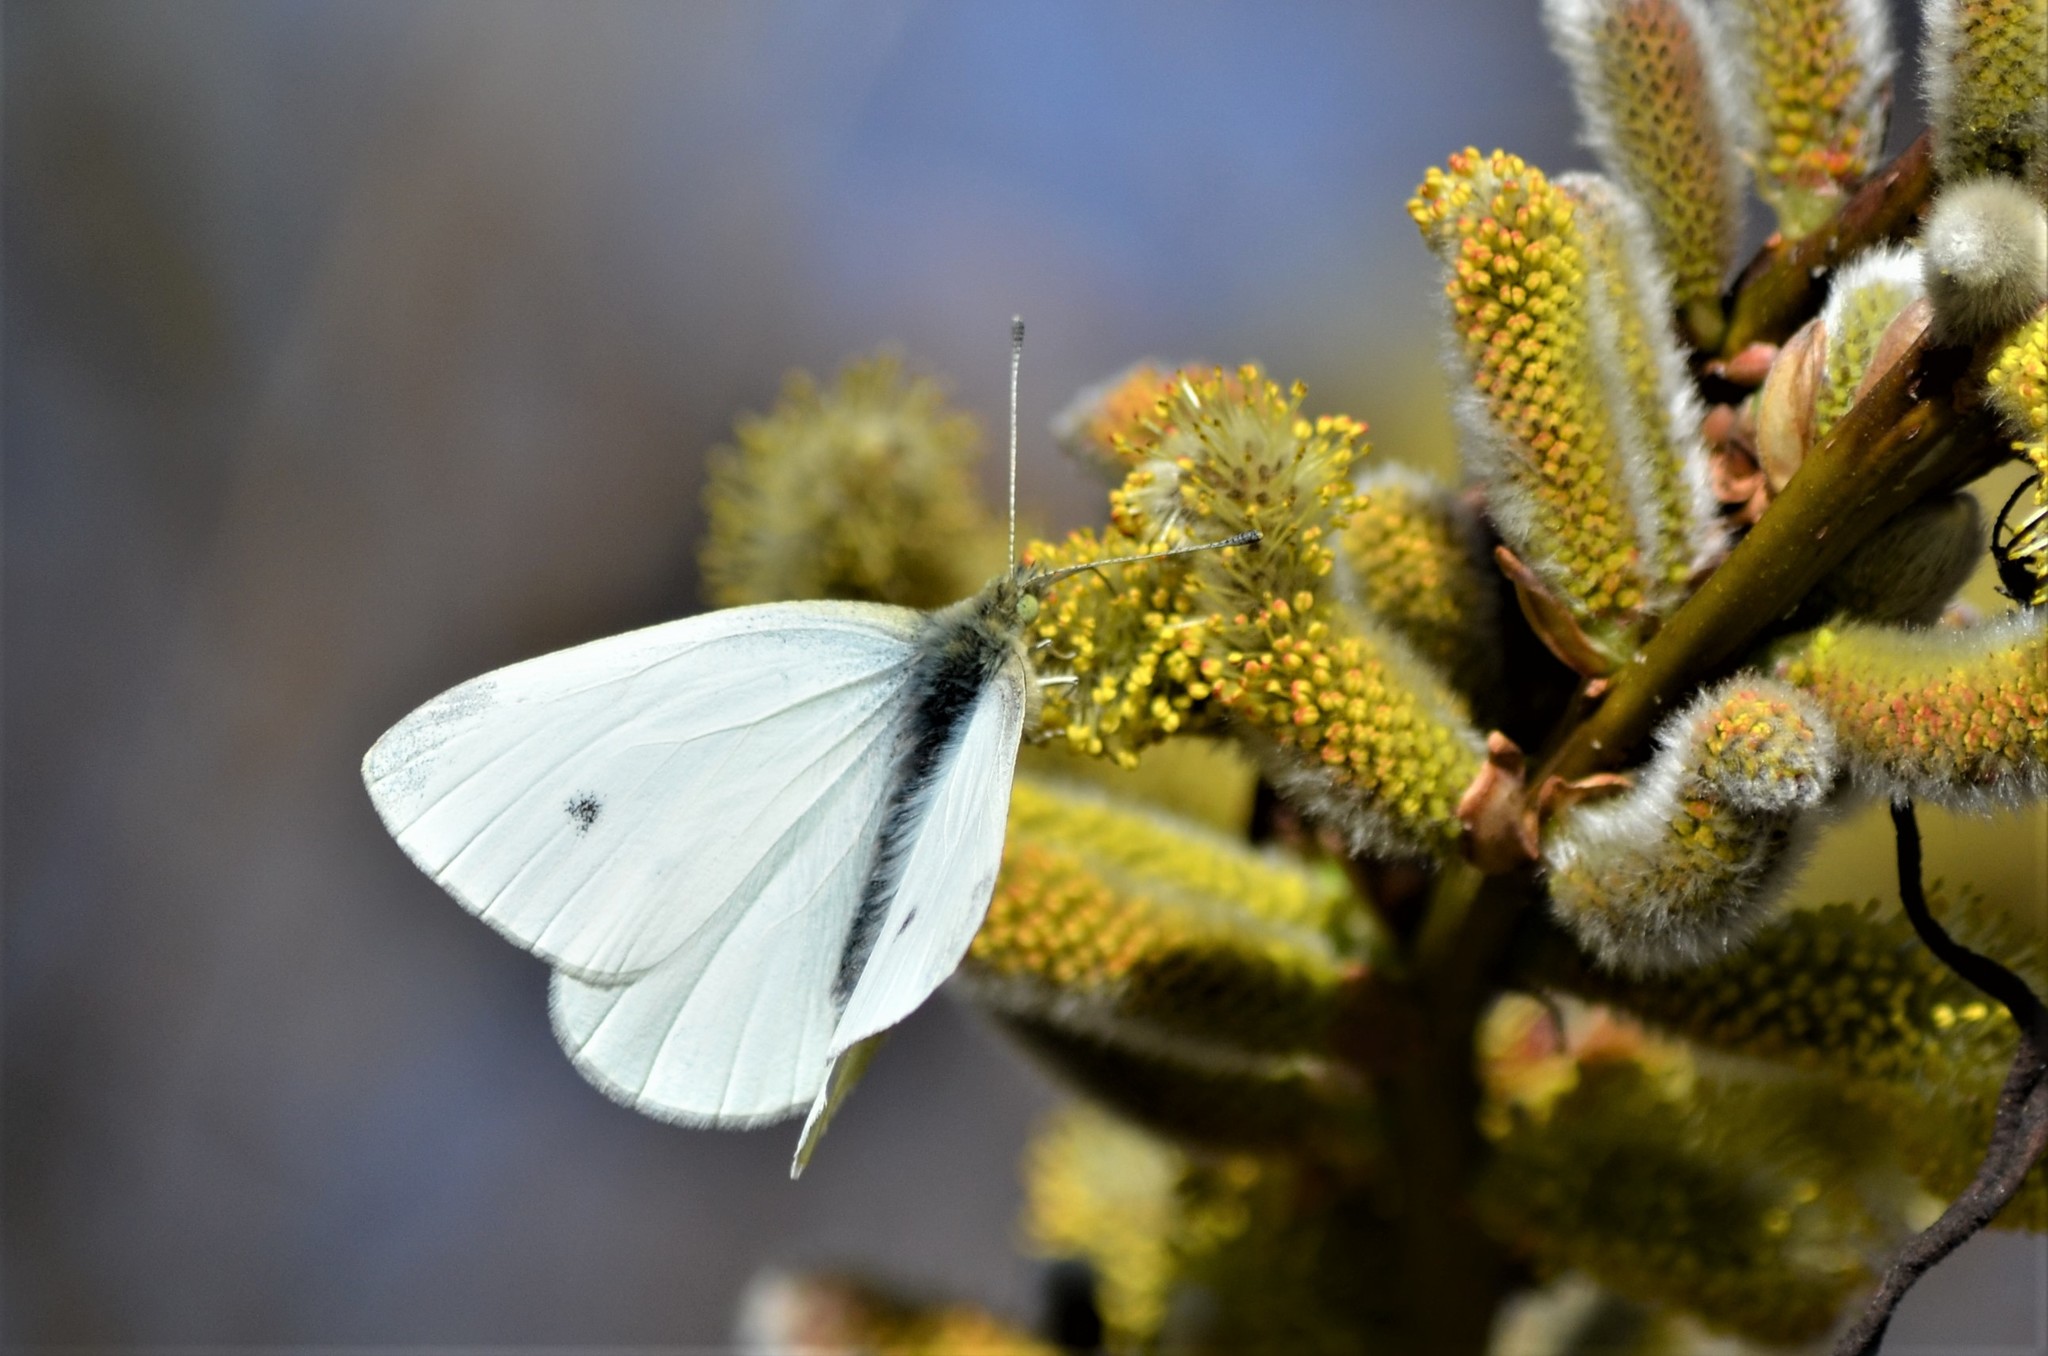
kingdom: Animalia
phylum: Arthropoda
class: Insecta
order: Lepidoptera
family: Pieridae
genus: Pieris
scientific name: Pieris rapae
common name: Small white
